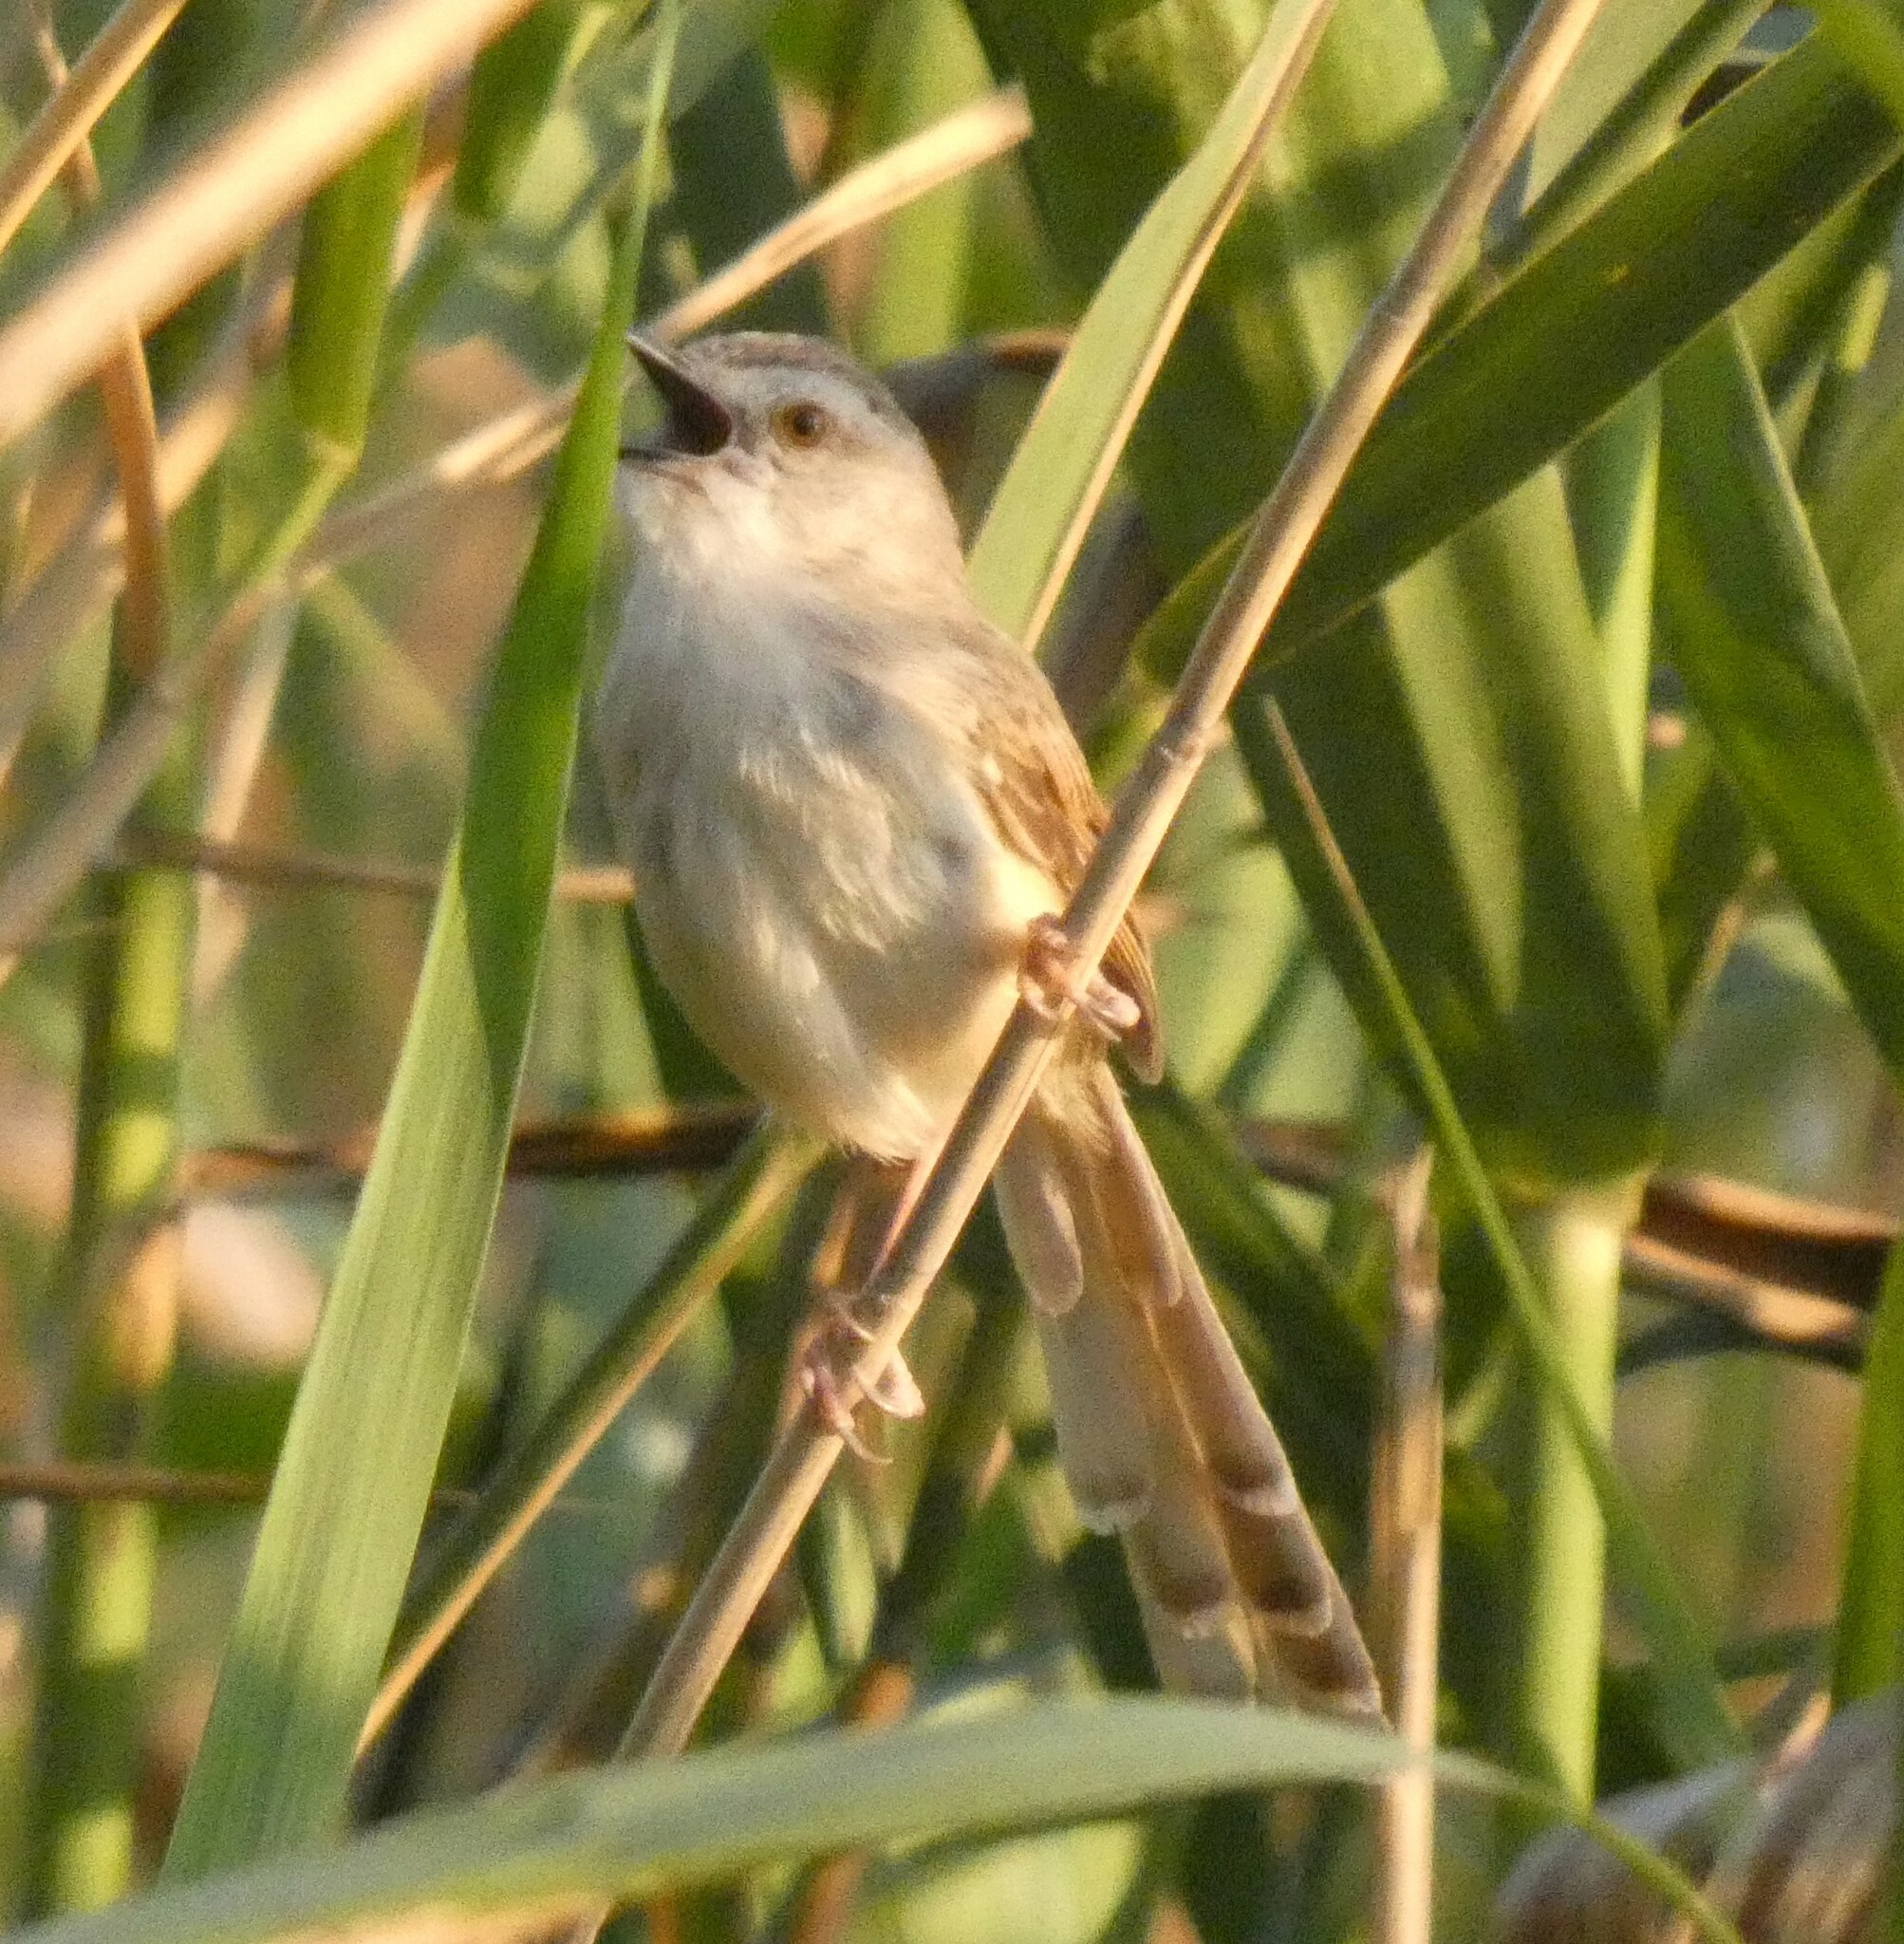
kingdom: Animalia
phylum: Chordata
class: Aves
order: Passeriformes
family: Cisticolidae
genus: Prinia
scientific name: Prinia subflava
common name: Tawny-flanked prinia
